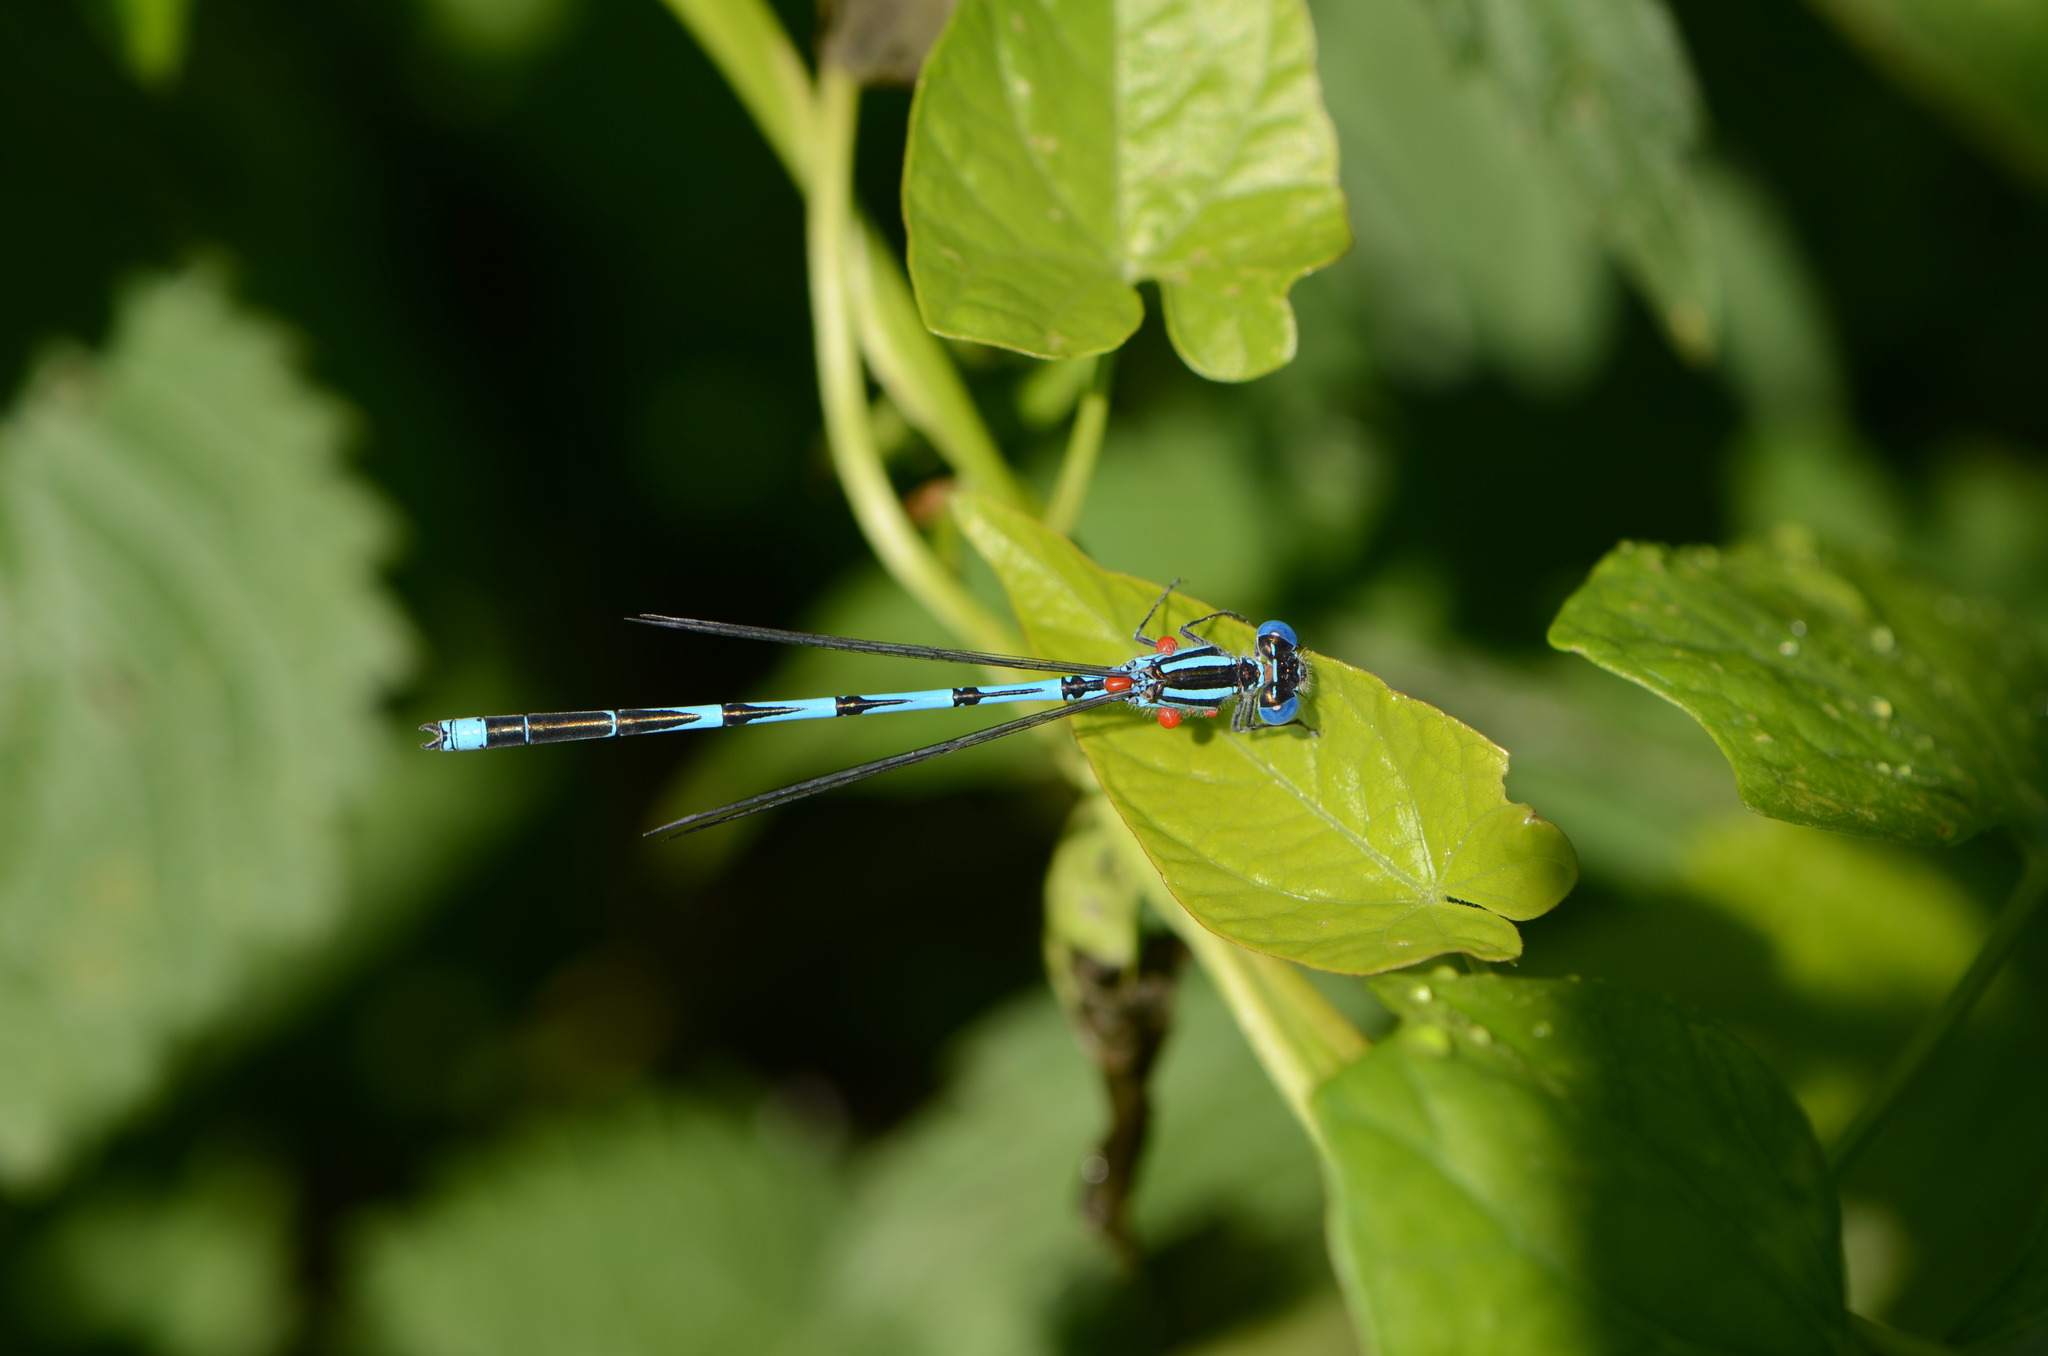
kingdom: Animalia
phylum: Arthropoda
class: Insecta
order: Odonata
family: Coenagrionidae
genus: Erythromma
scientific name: Erythromma lindenii
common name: Blue-eye
